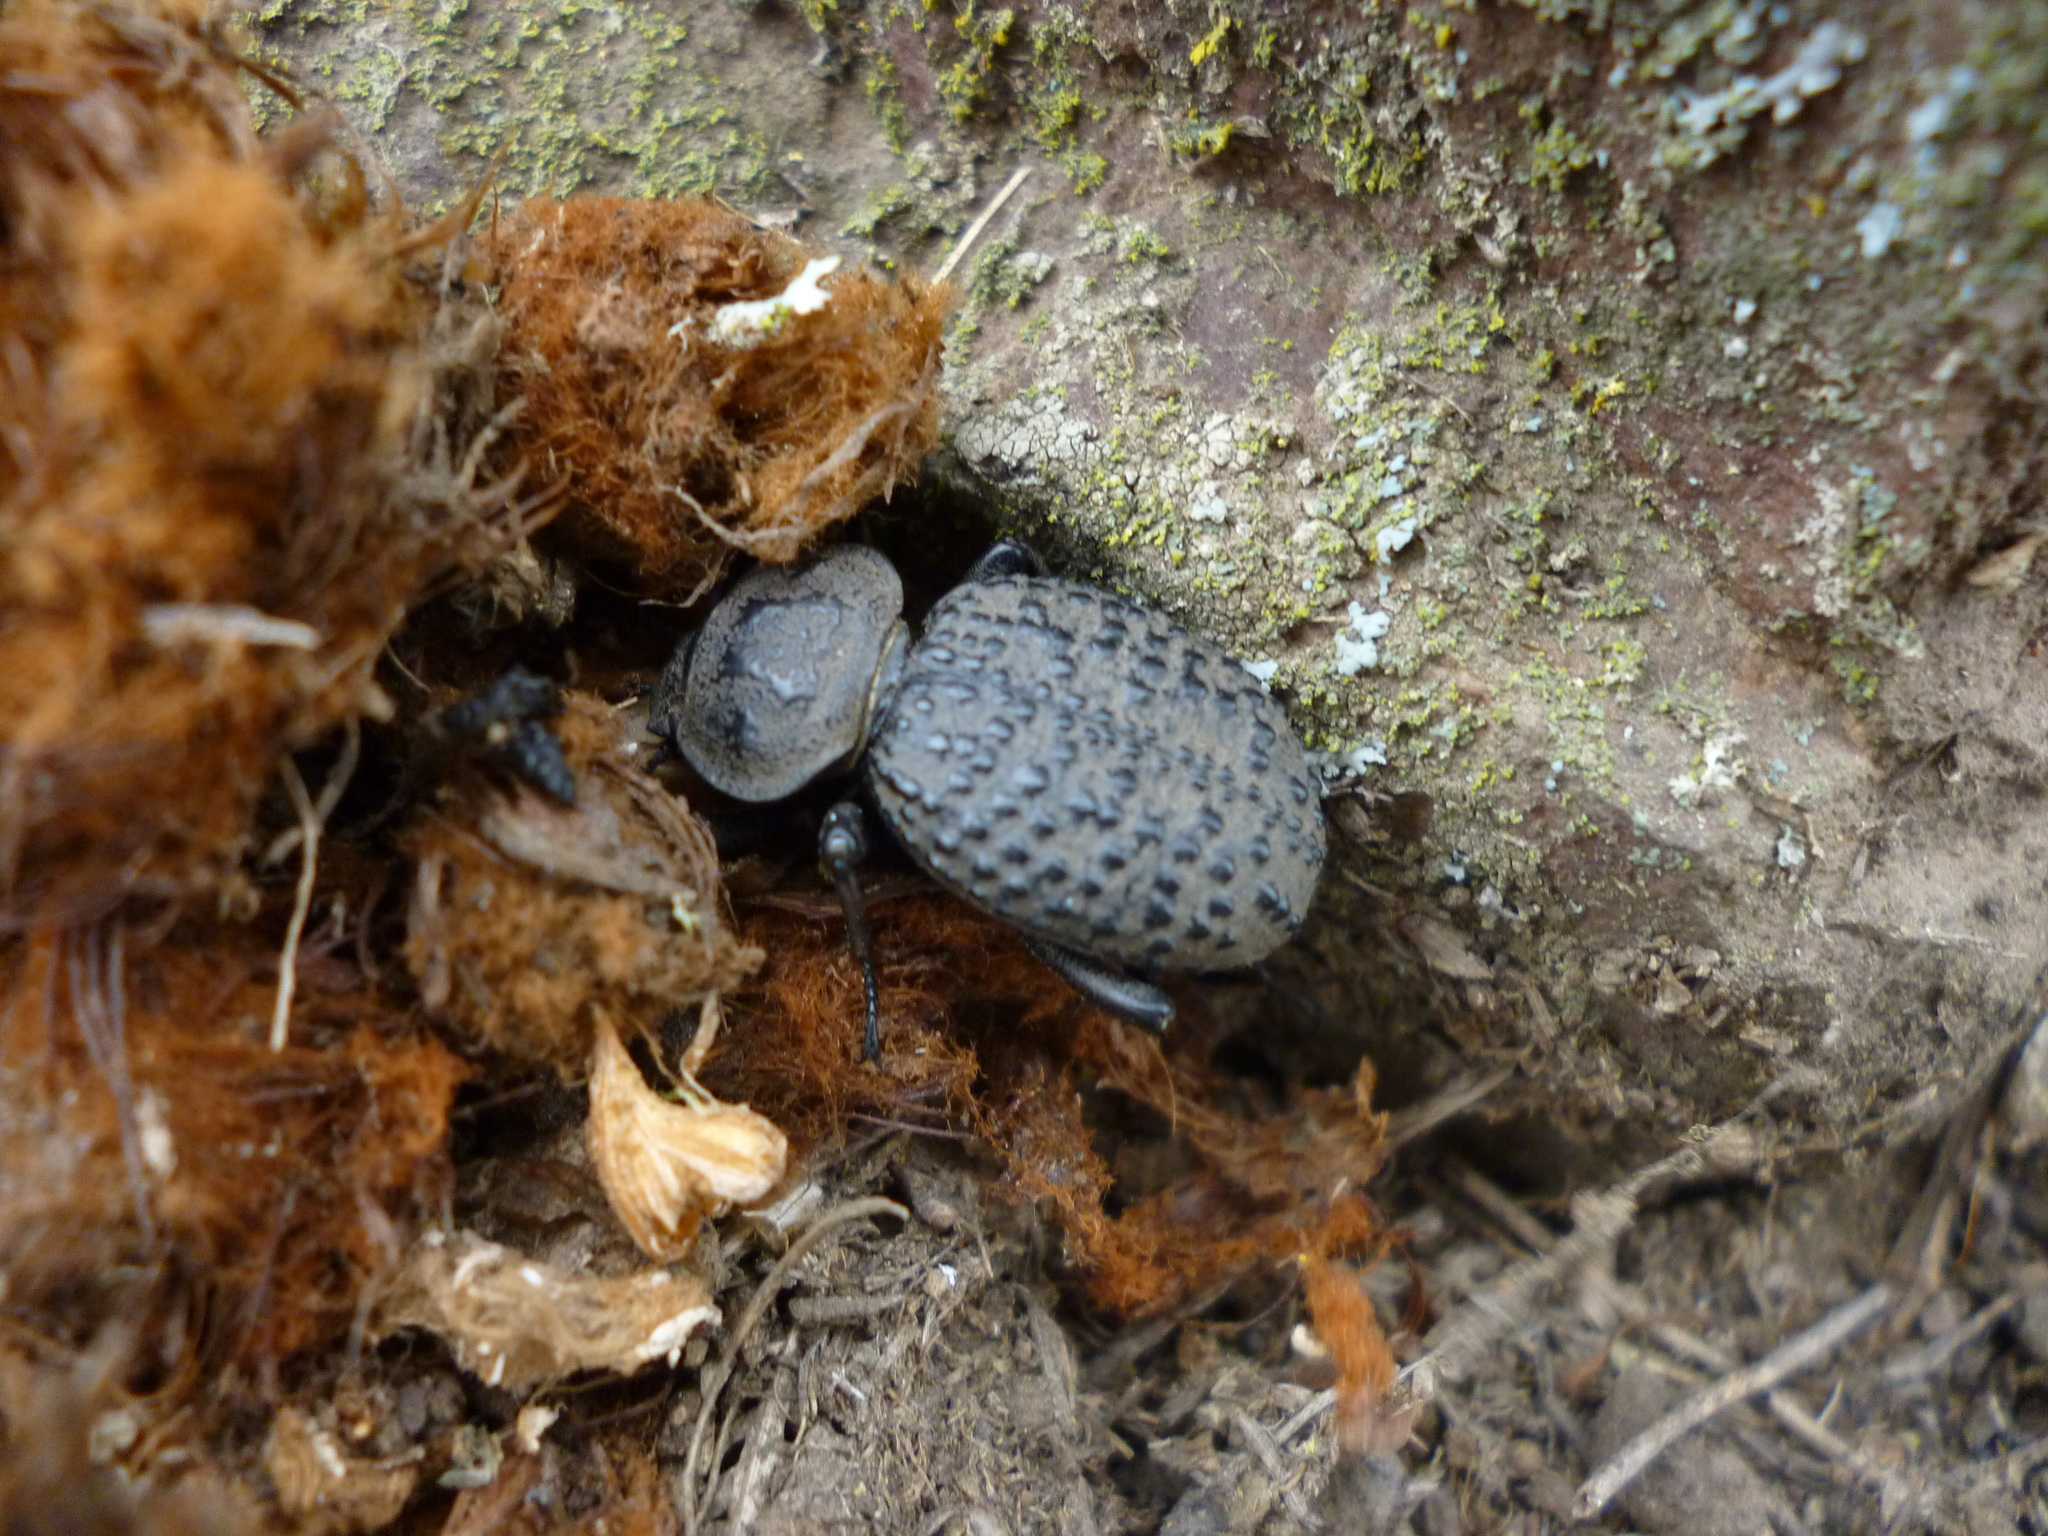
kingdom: Animalia
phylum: Arthropoda
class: Insecta
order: Coleoptera
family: Tenebrionidae
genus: Scotobius
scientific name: Scotobius pilularius
